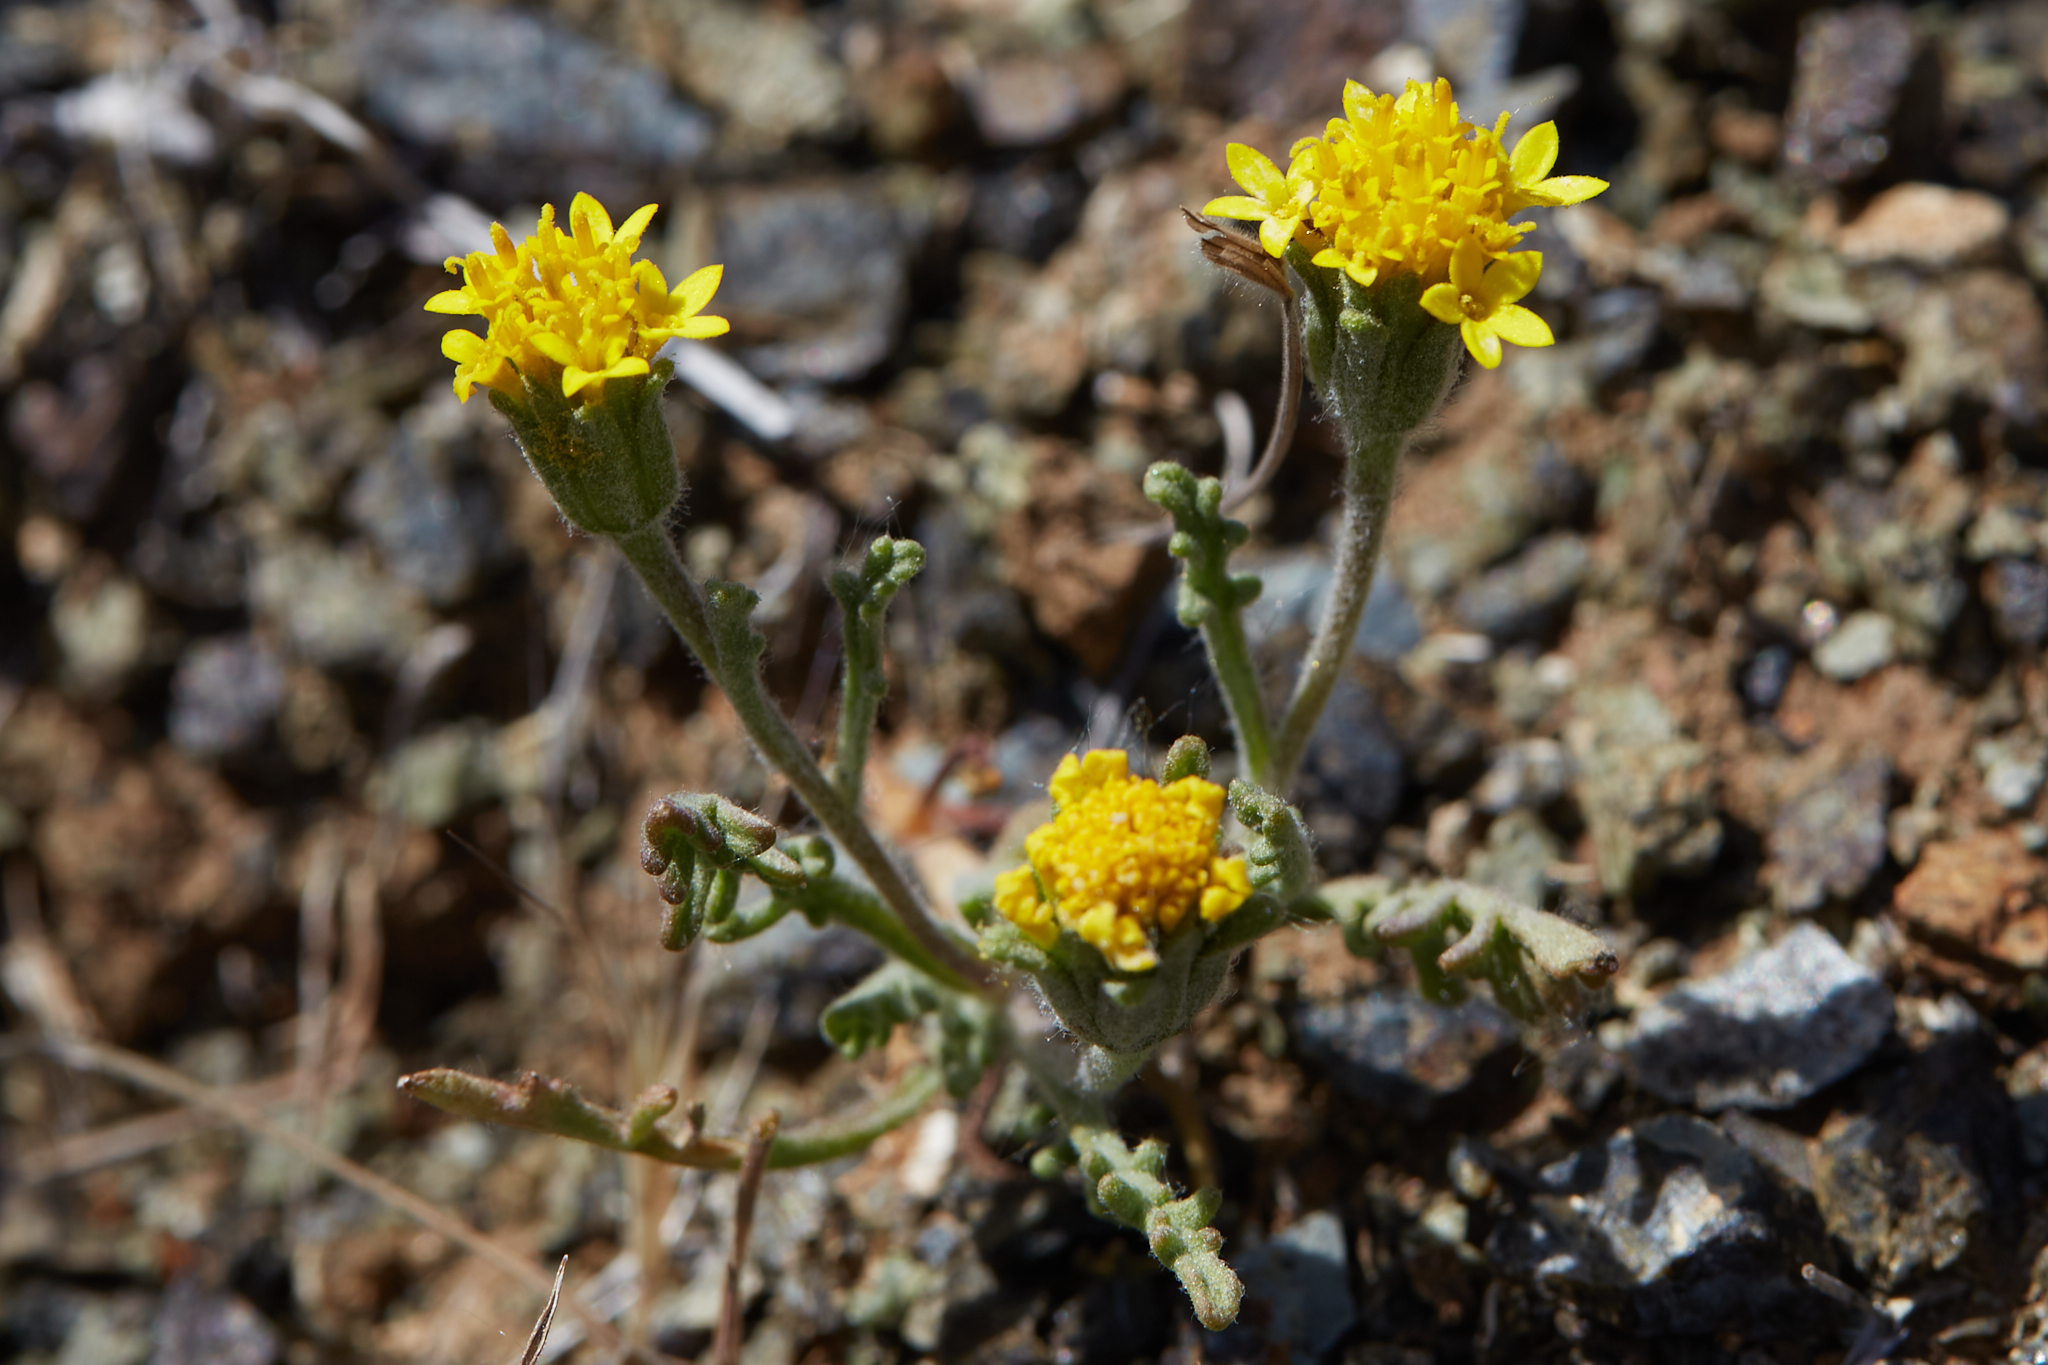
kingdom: Plantae
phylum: Tracheophyta
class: Magnoliopsida
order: Asterales
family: Asteraceae
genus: Chaenactis
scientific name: Chaenactis glabriuscula
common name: Yellow pincushion
